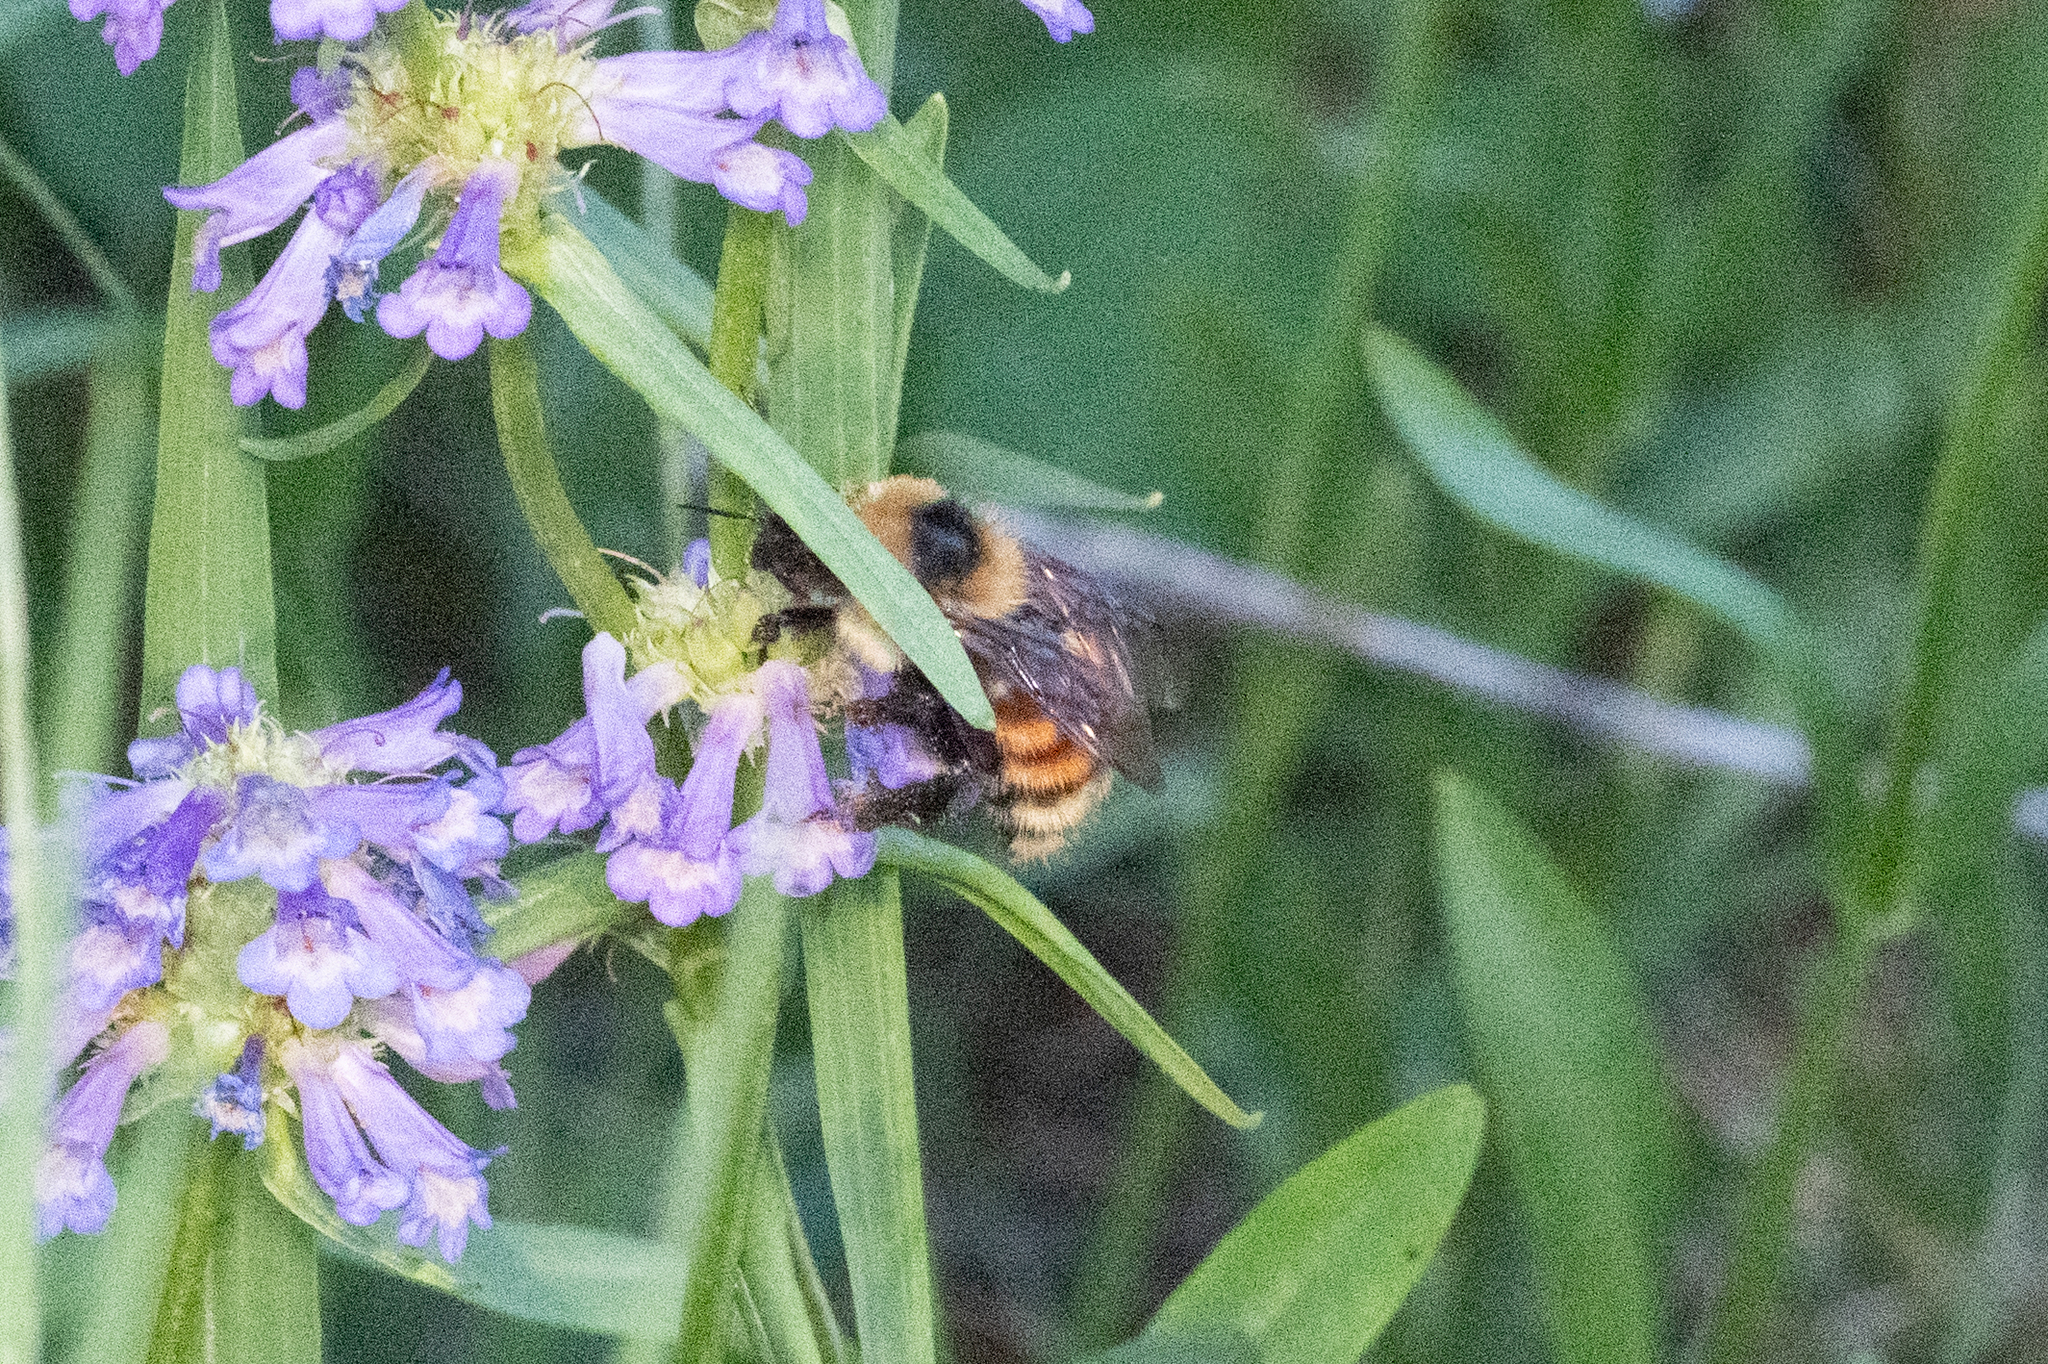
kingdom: Animalia
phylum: Arthropoda
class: Insecta
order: Hymenoptera
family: Apidae
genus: Bombus
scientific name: Bombus rufocinctus
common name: Red-belted bumble bee
